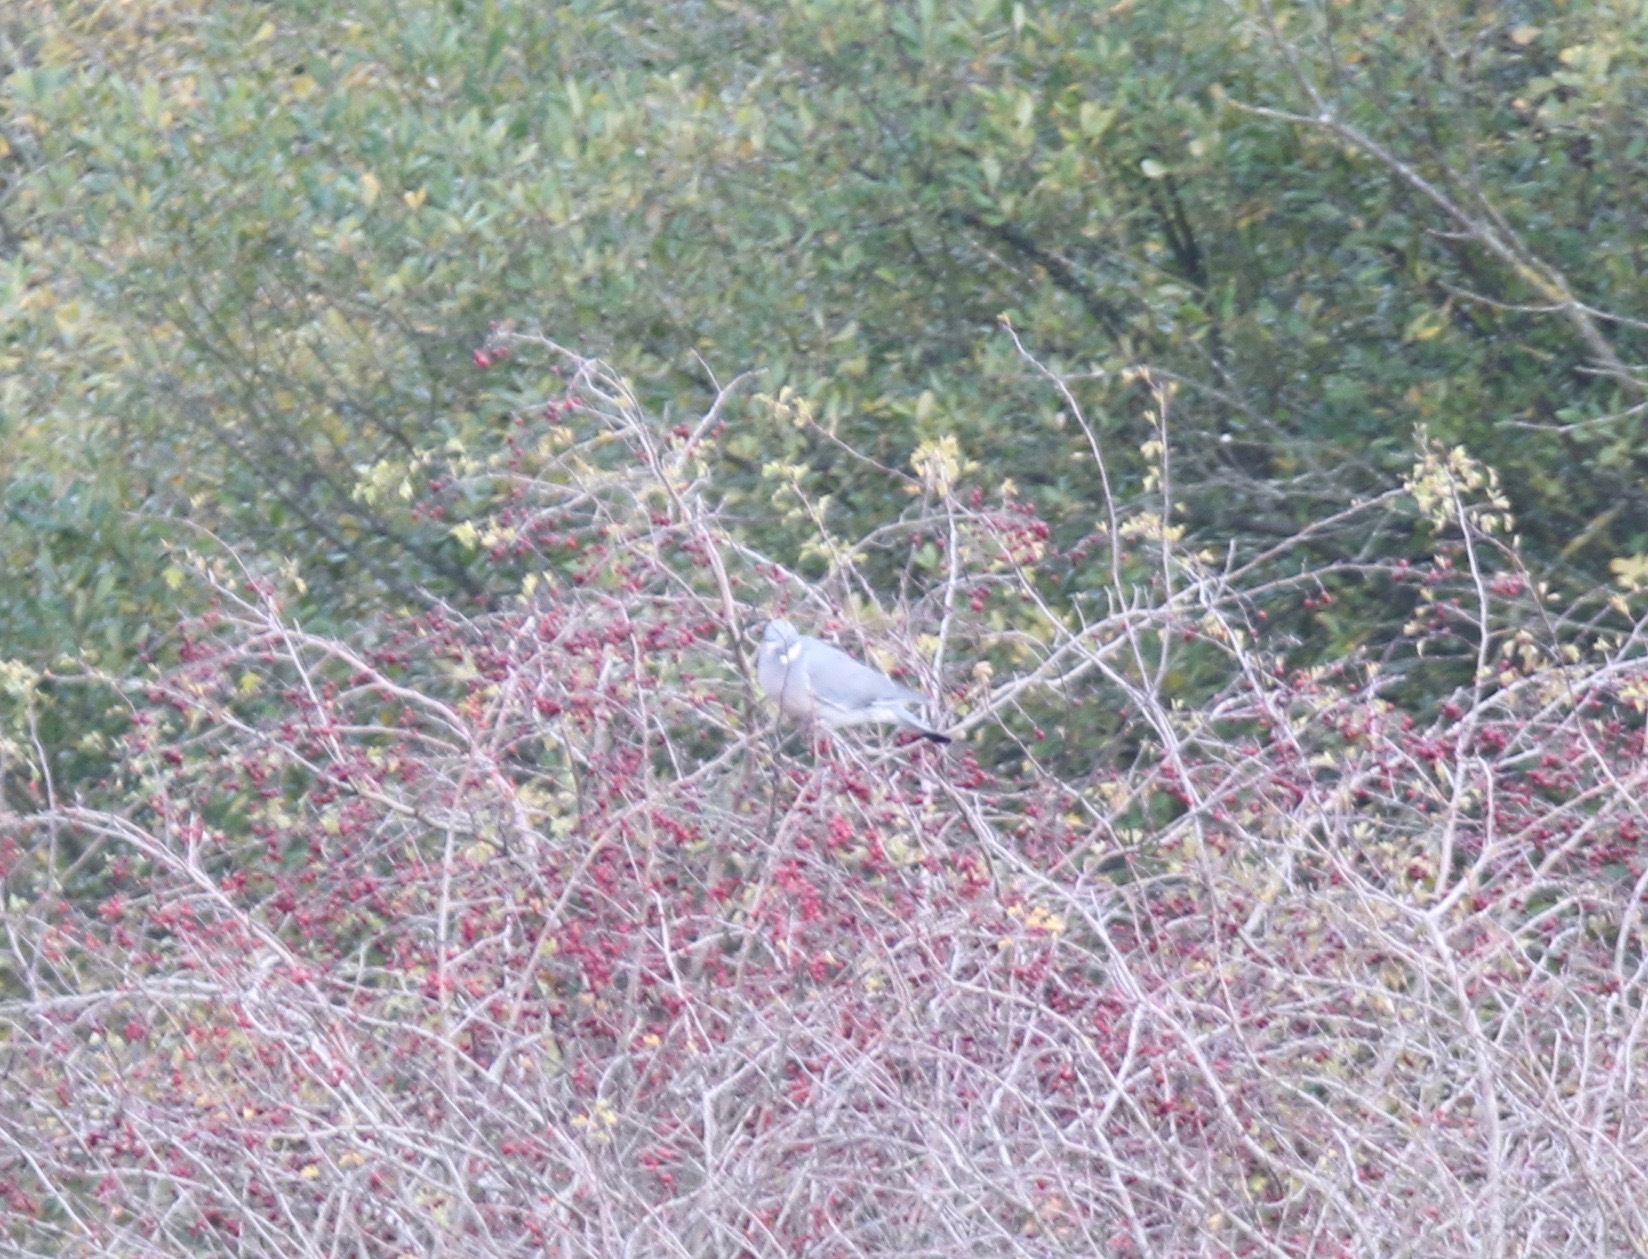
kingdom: Animalia
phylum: Chordata
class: Aves
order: Columbiformes
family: Columbidae
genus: Columba
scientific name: Columba palumbus
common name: Common wood pigeon
